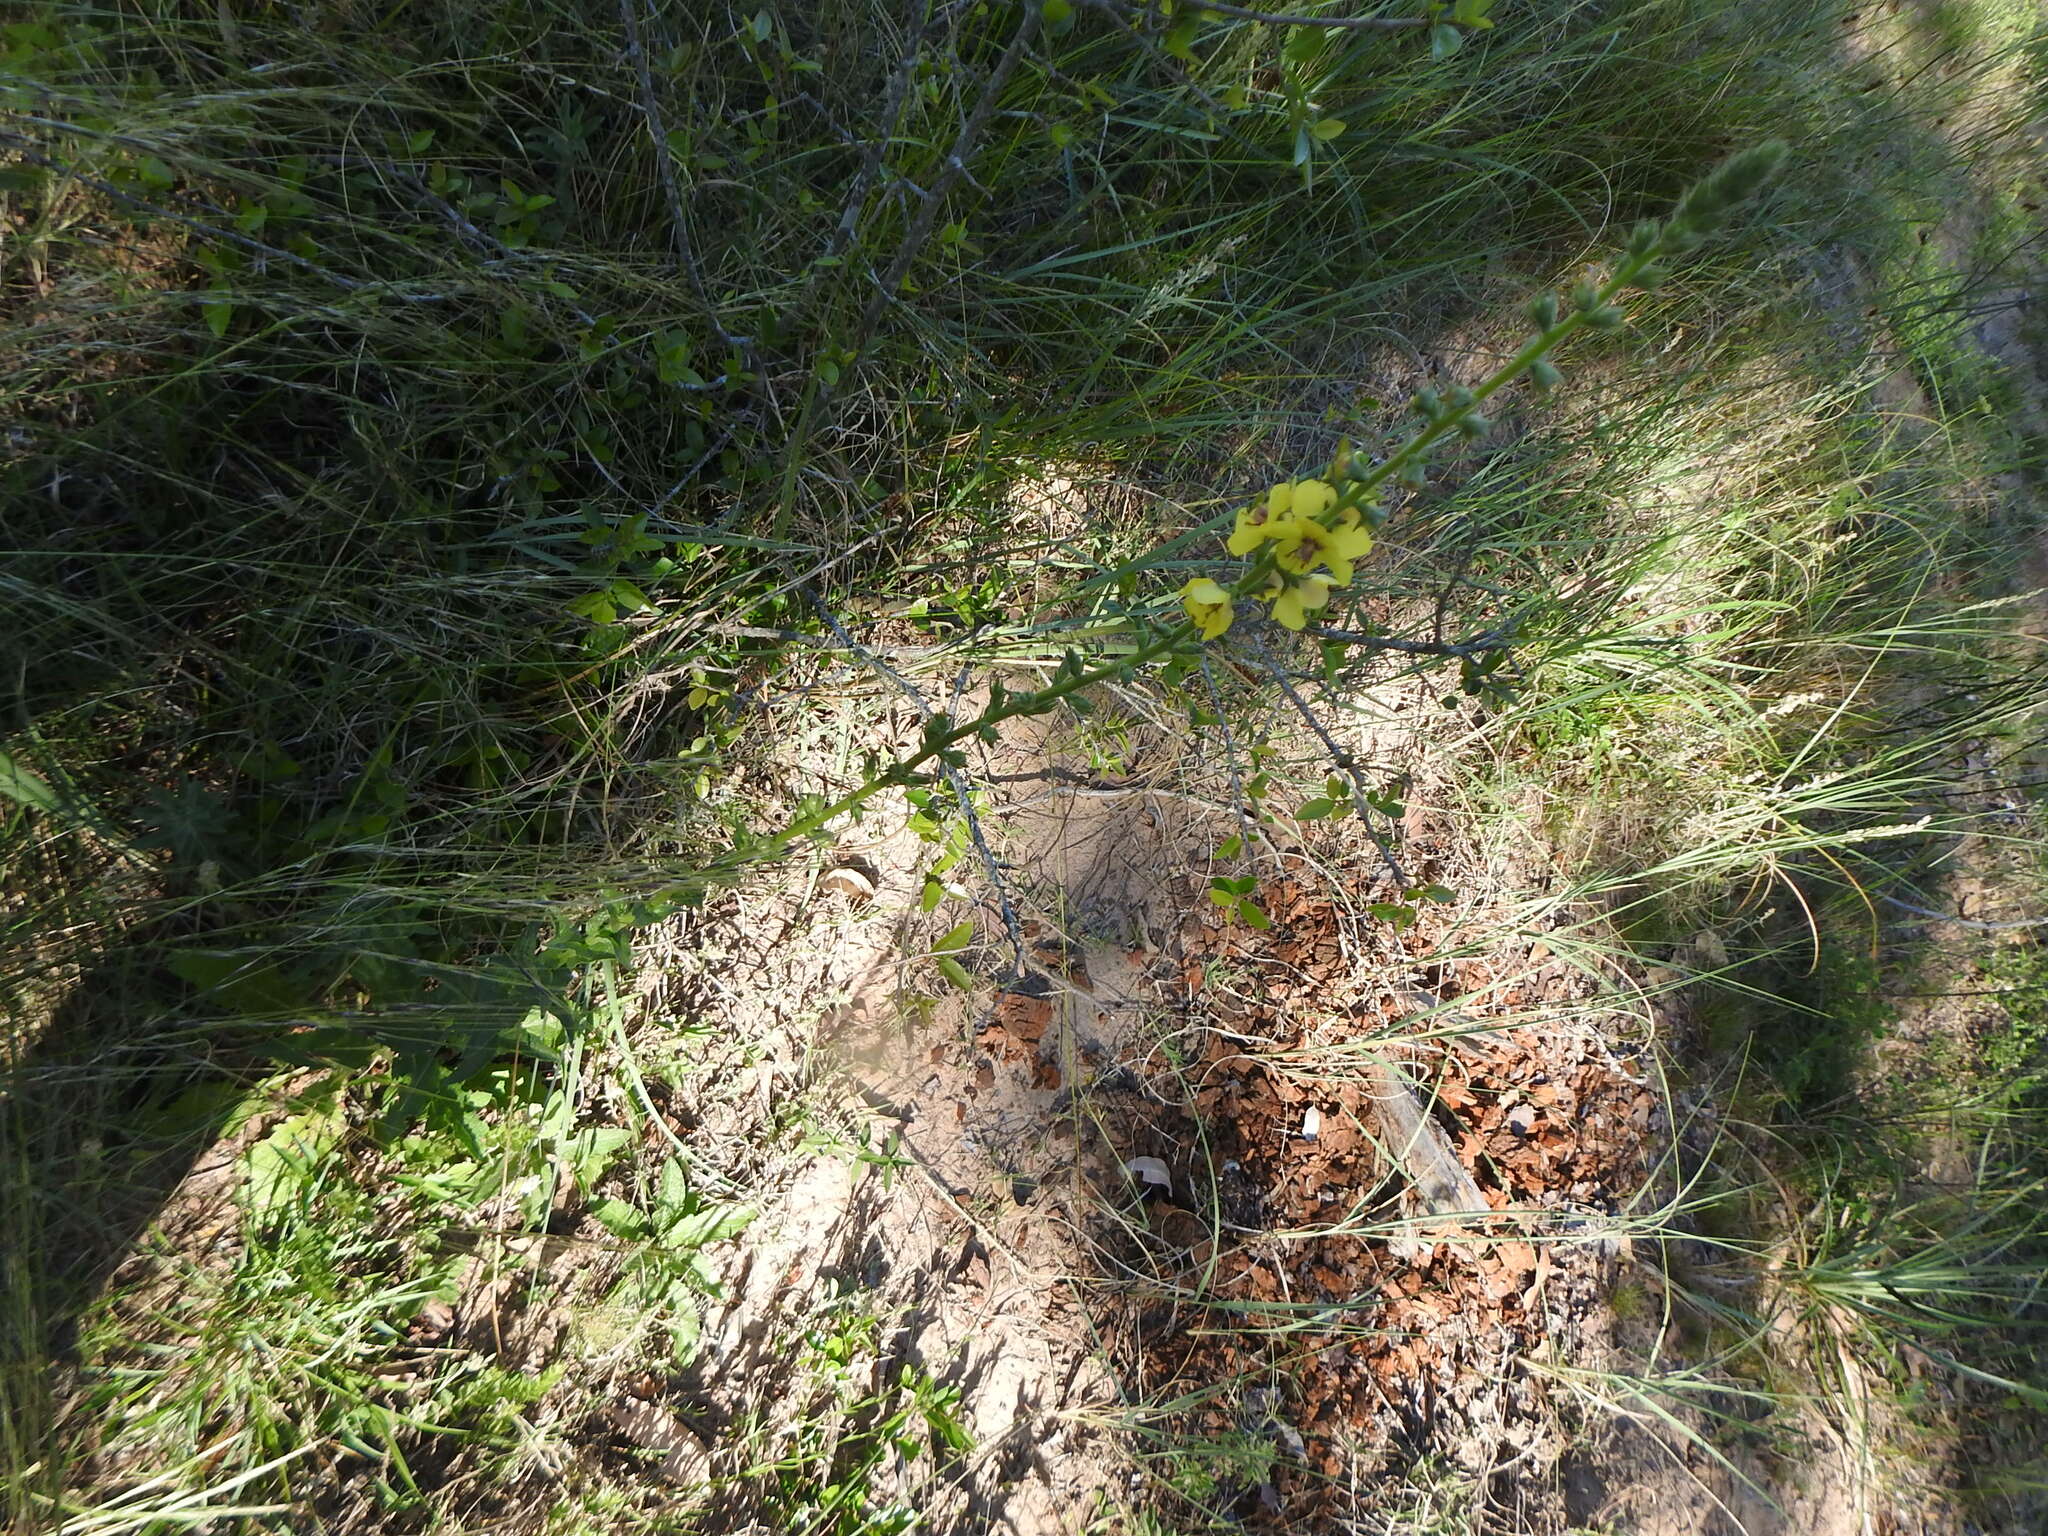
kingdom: Plantae
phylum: Tracheophyta
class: Magnoliopsida
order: Lamiales
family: Scrophulariaceae
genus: Verbascum
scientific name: Verbascum virgatum
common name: Twiggy mullein
